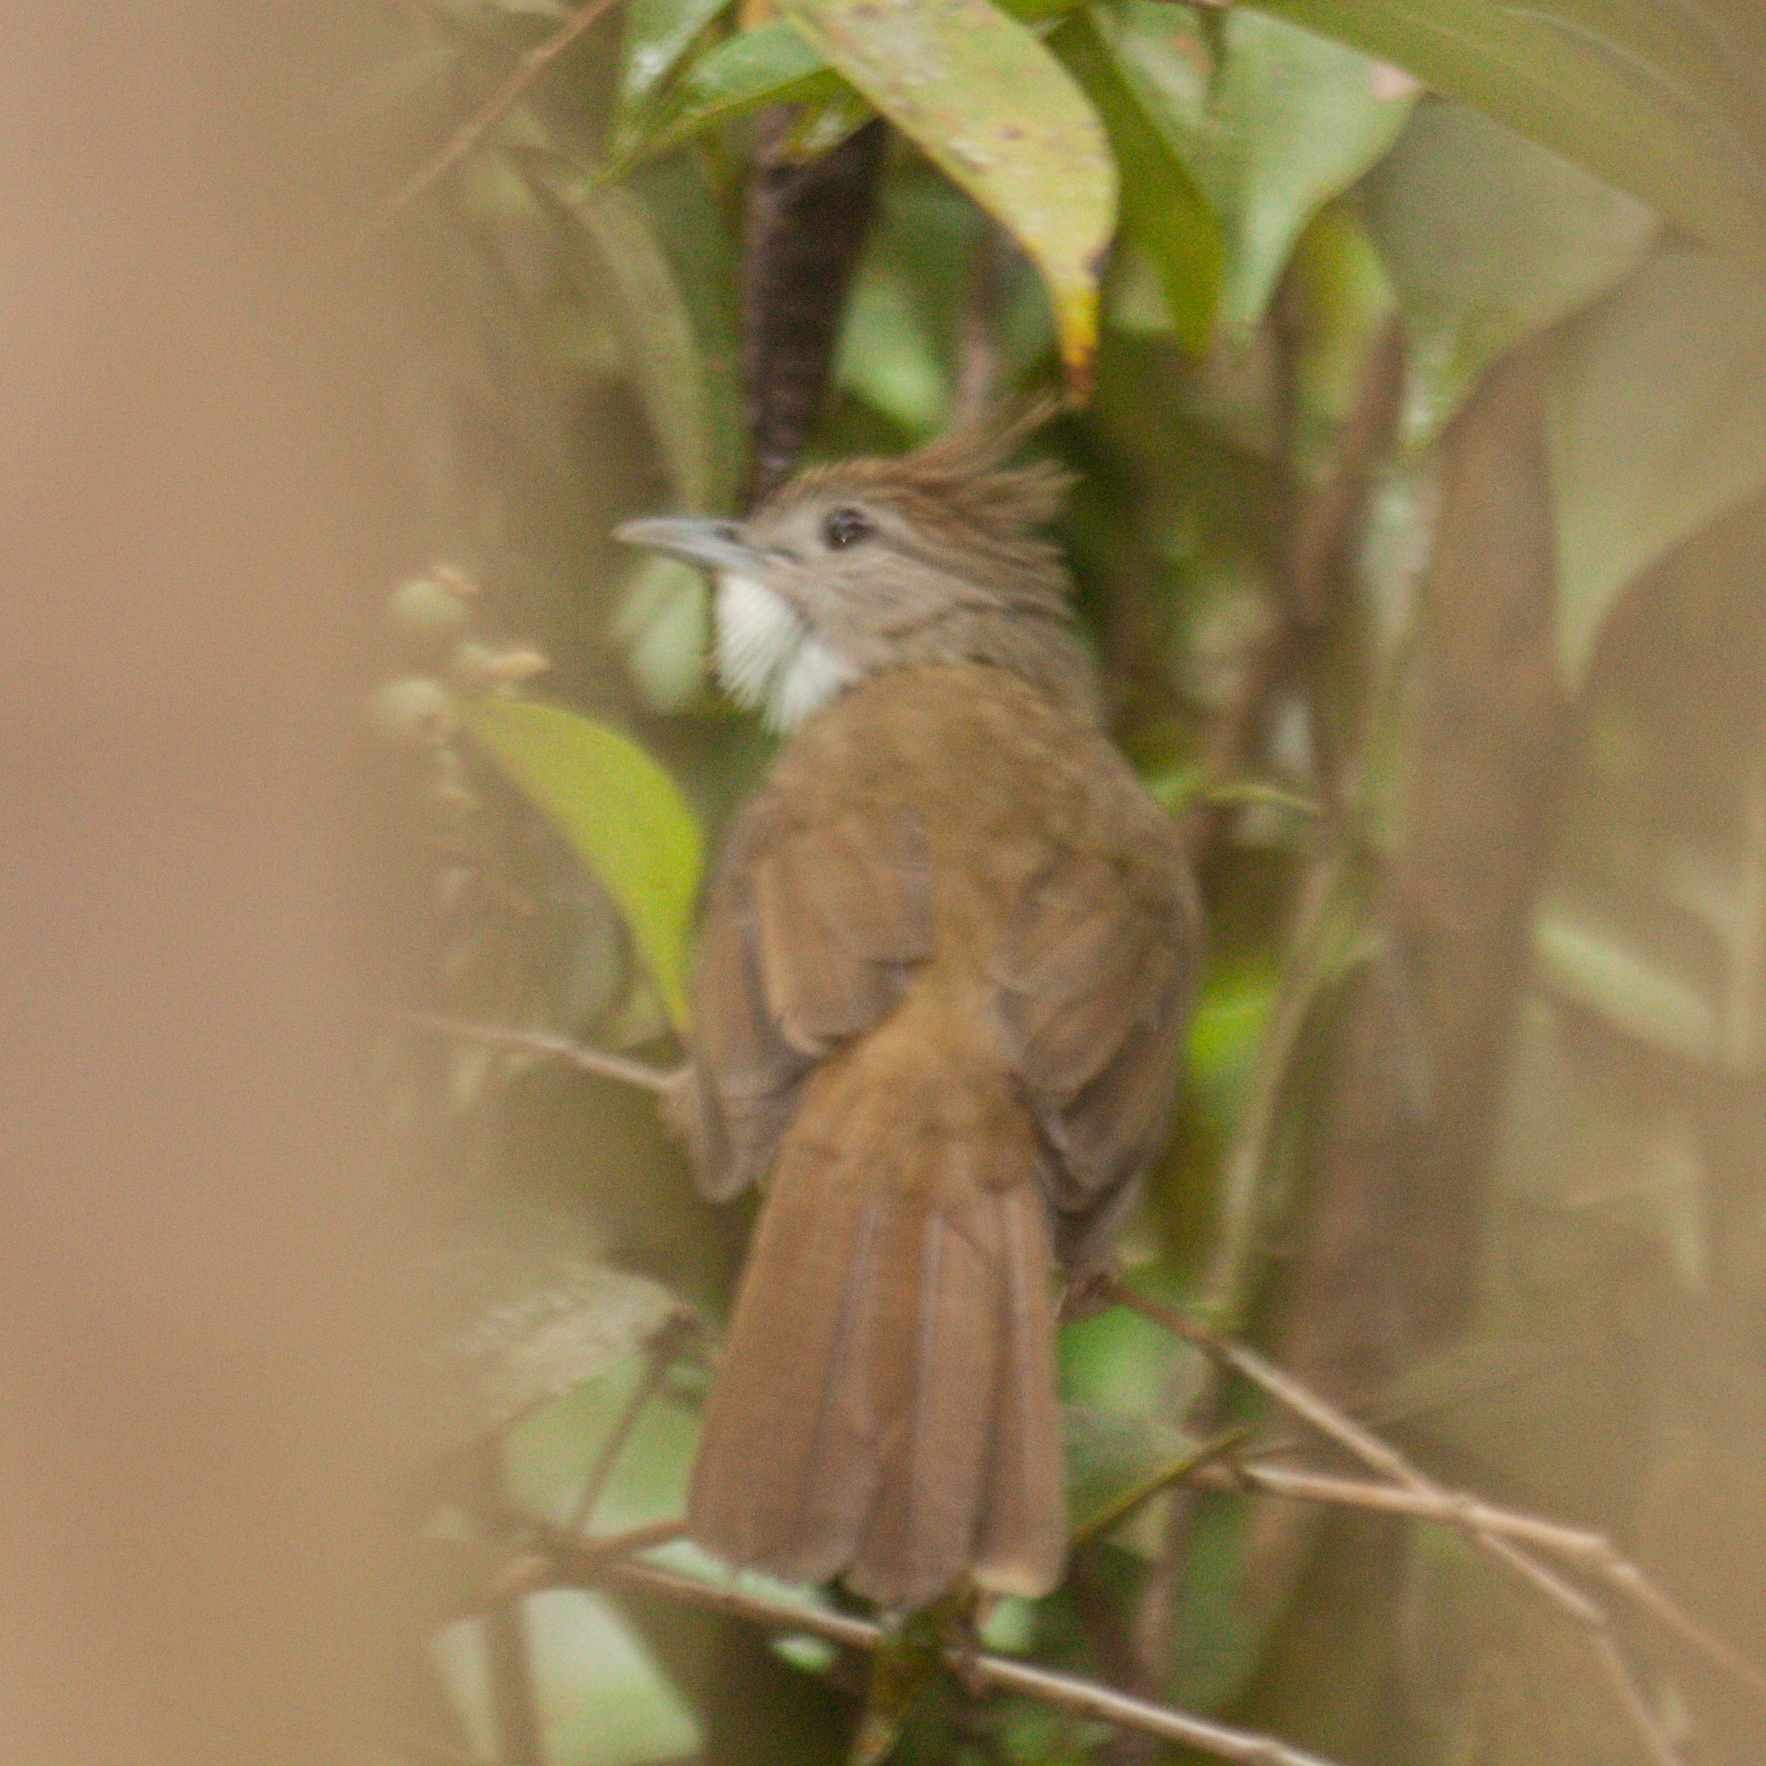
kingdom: Animalia
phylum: Chordata
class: Aves
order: Passeriformes
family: Pycnonotidae
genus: Alophoixus
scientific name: Alophoixus ochraceus
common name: Ochraceous bulbul
